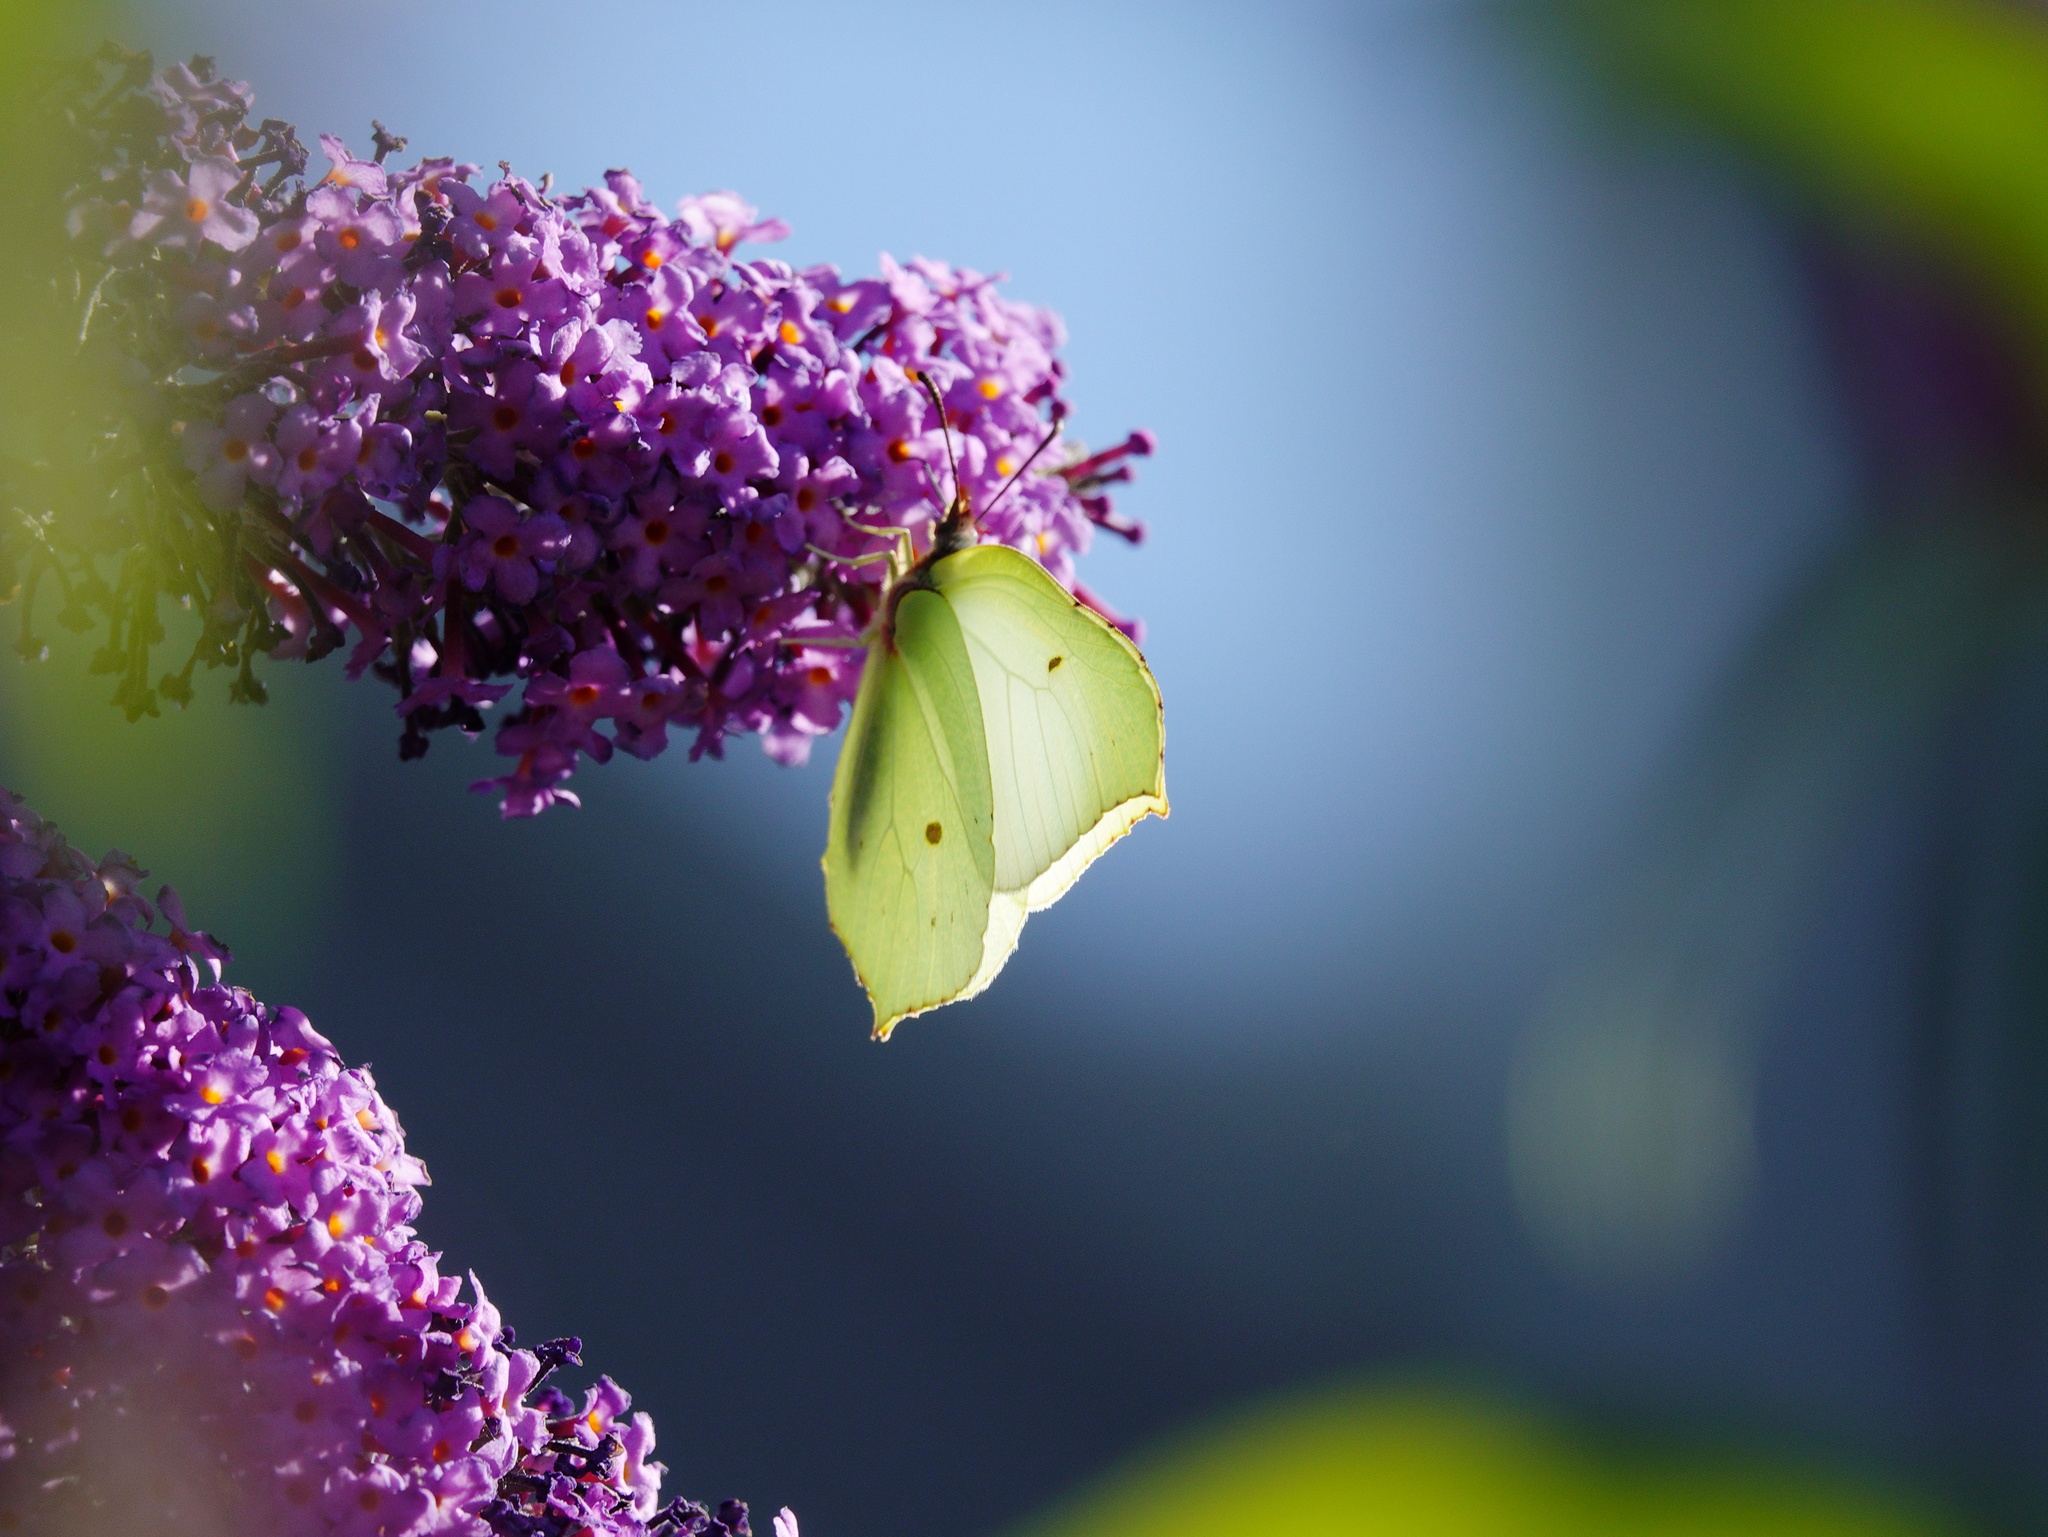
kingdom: Animalia
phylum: Arthropoda
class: Insecta
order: Lepidoptera
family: Pieridae
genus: Gonepteryx
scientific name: Gonepteryx rhamni
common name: Brimstone
